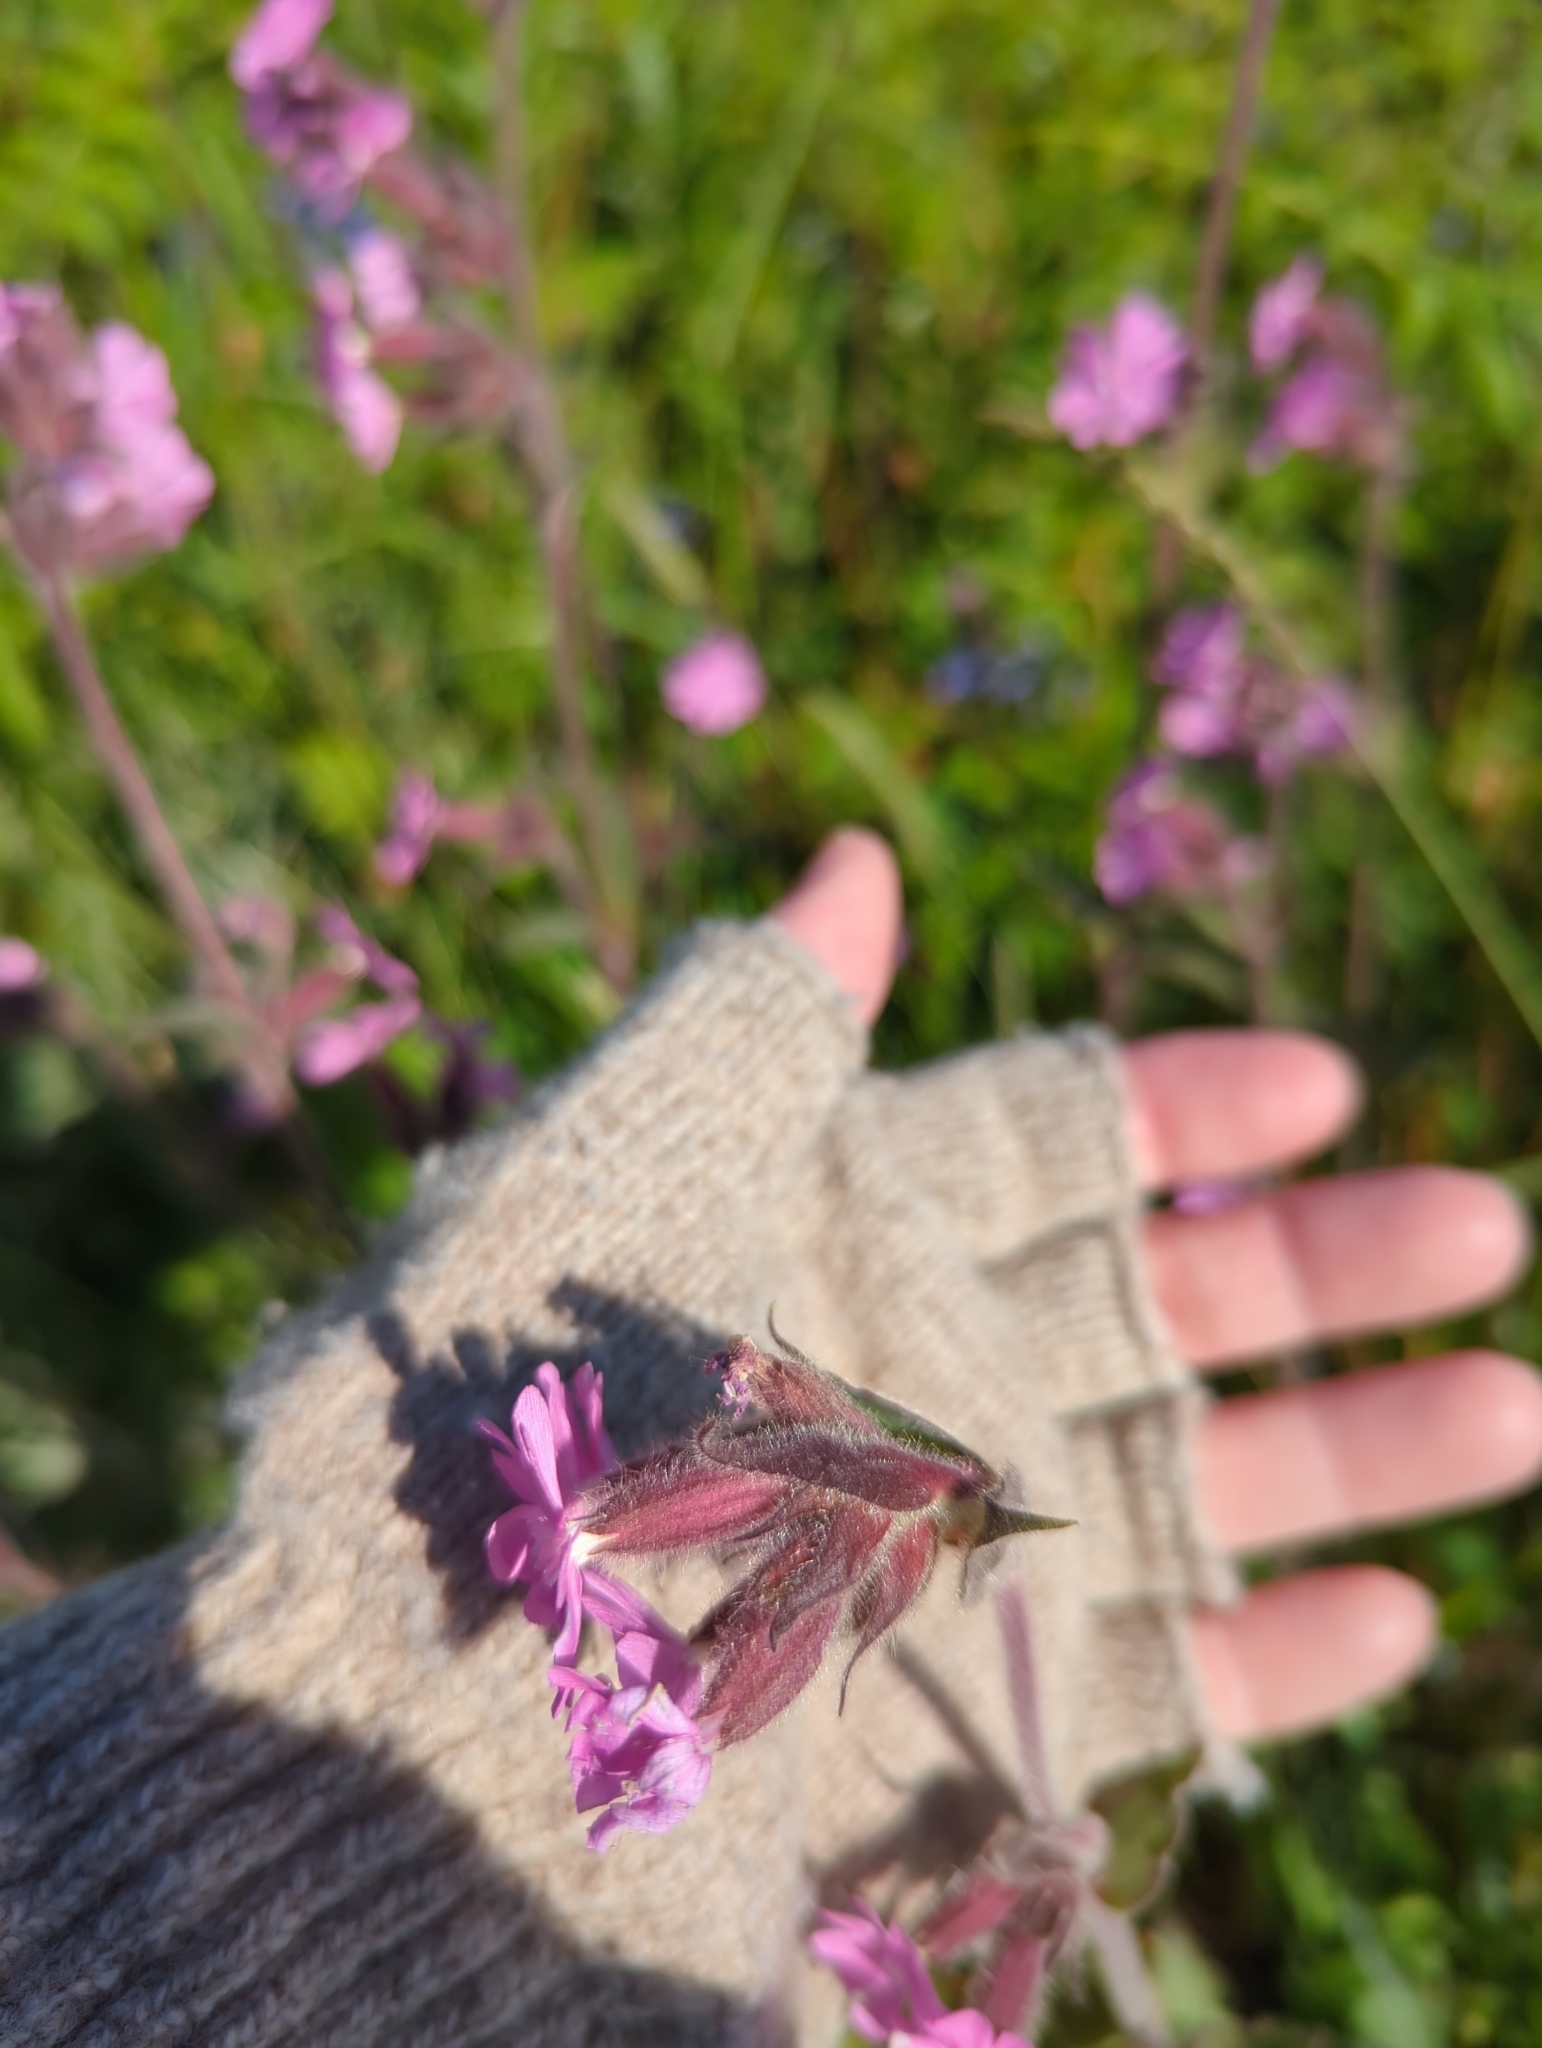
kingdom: Plantae
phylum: Tracheophyta
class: Magnoliopsida
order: Caryophyllales
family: Caryophyllaceae
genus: Silene
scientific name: Silene dioica
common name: Red campion
